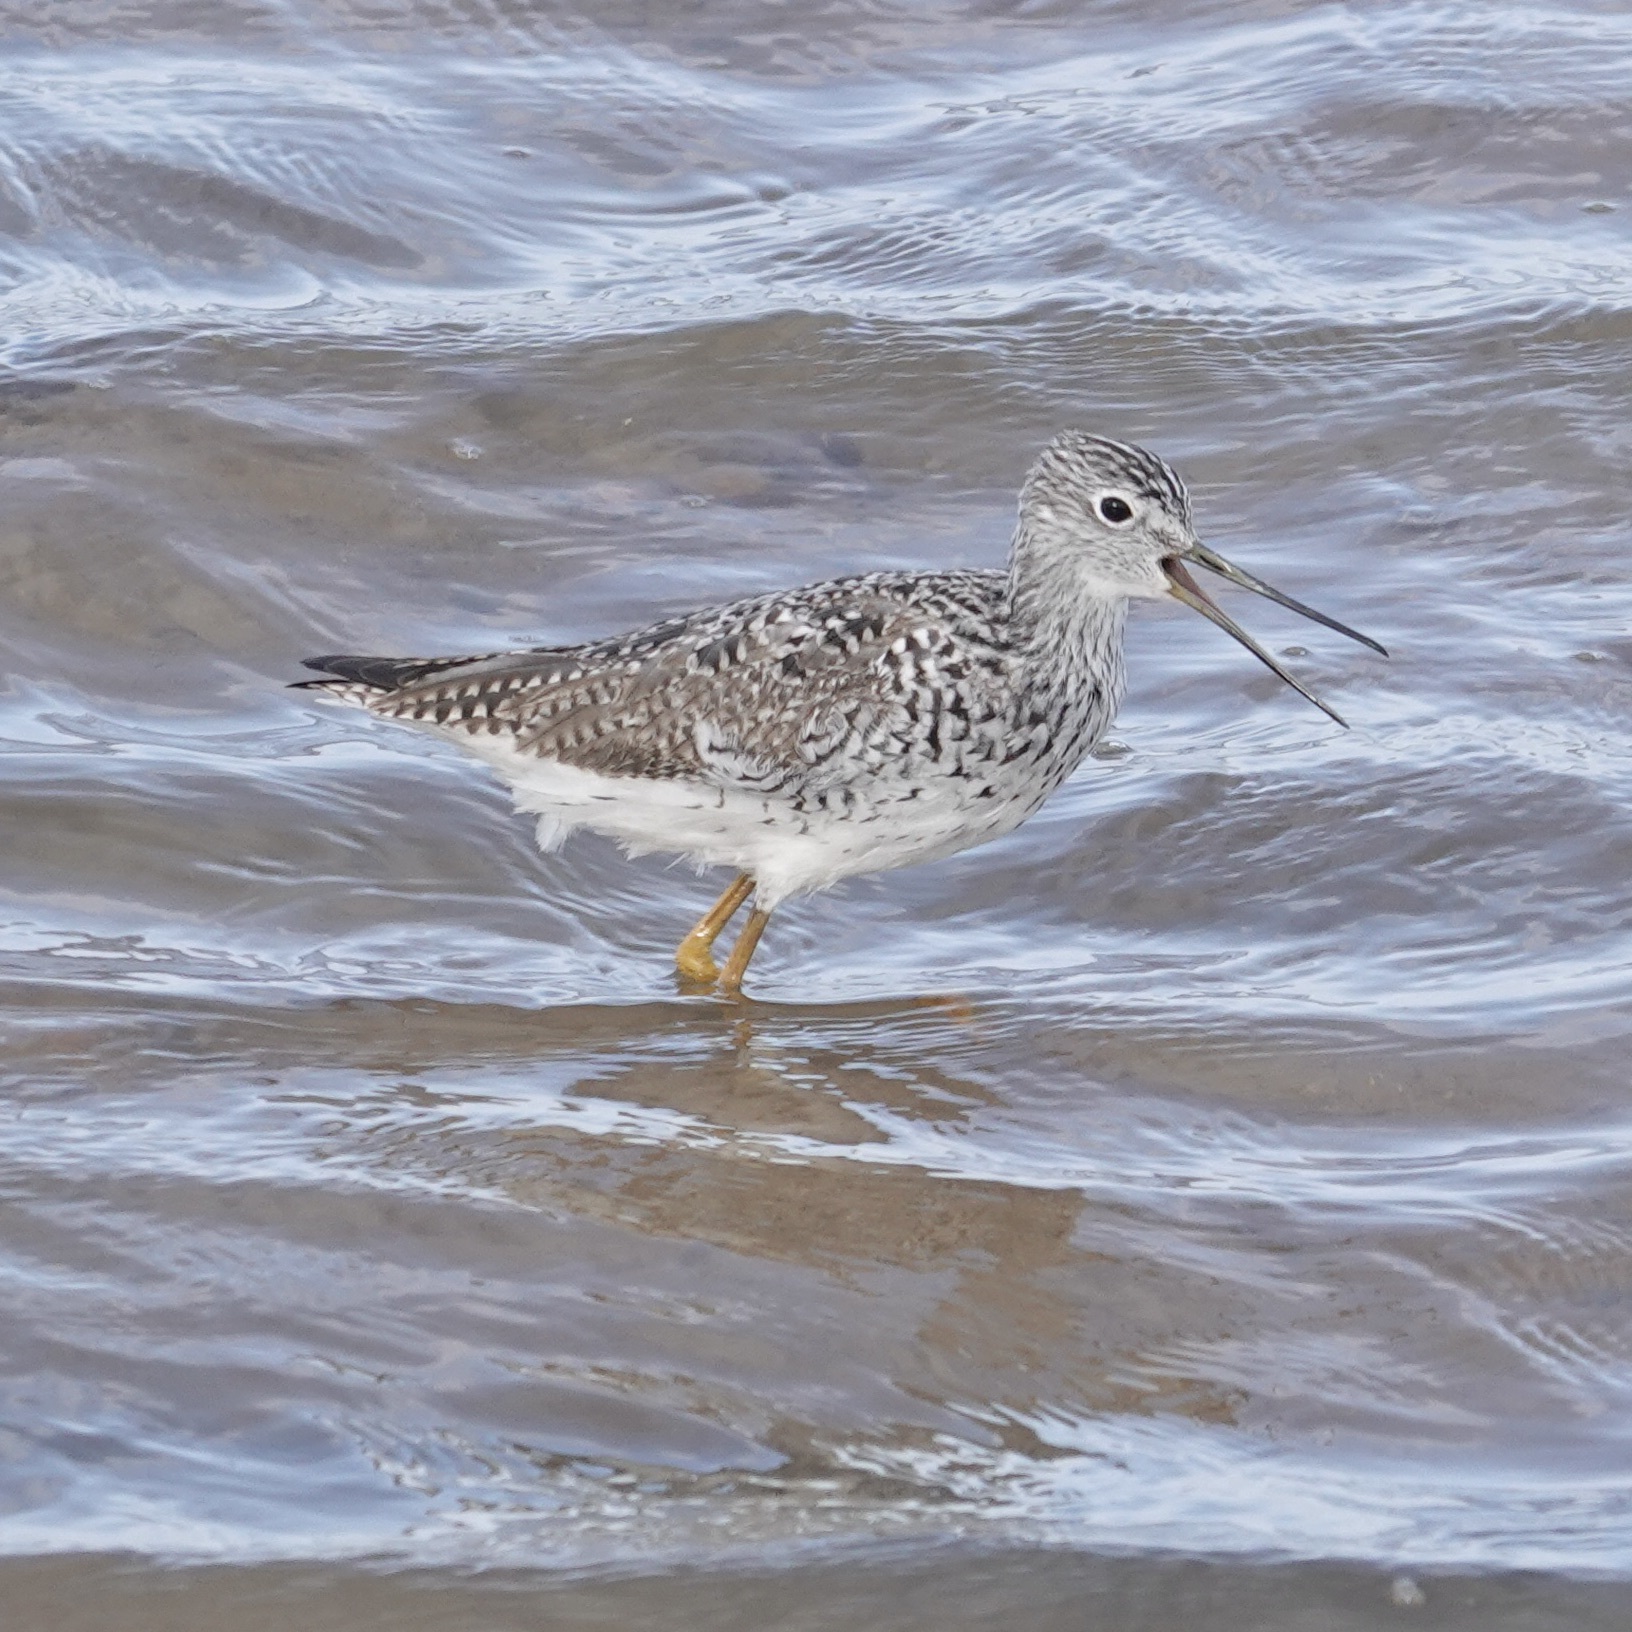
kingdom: Animalia
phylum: Chordata
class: Aves
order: Charadriiformes
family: Scolopacidae
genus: Tringa
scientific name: Tringa melanoleuca
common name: Greater yellowlegs
